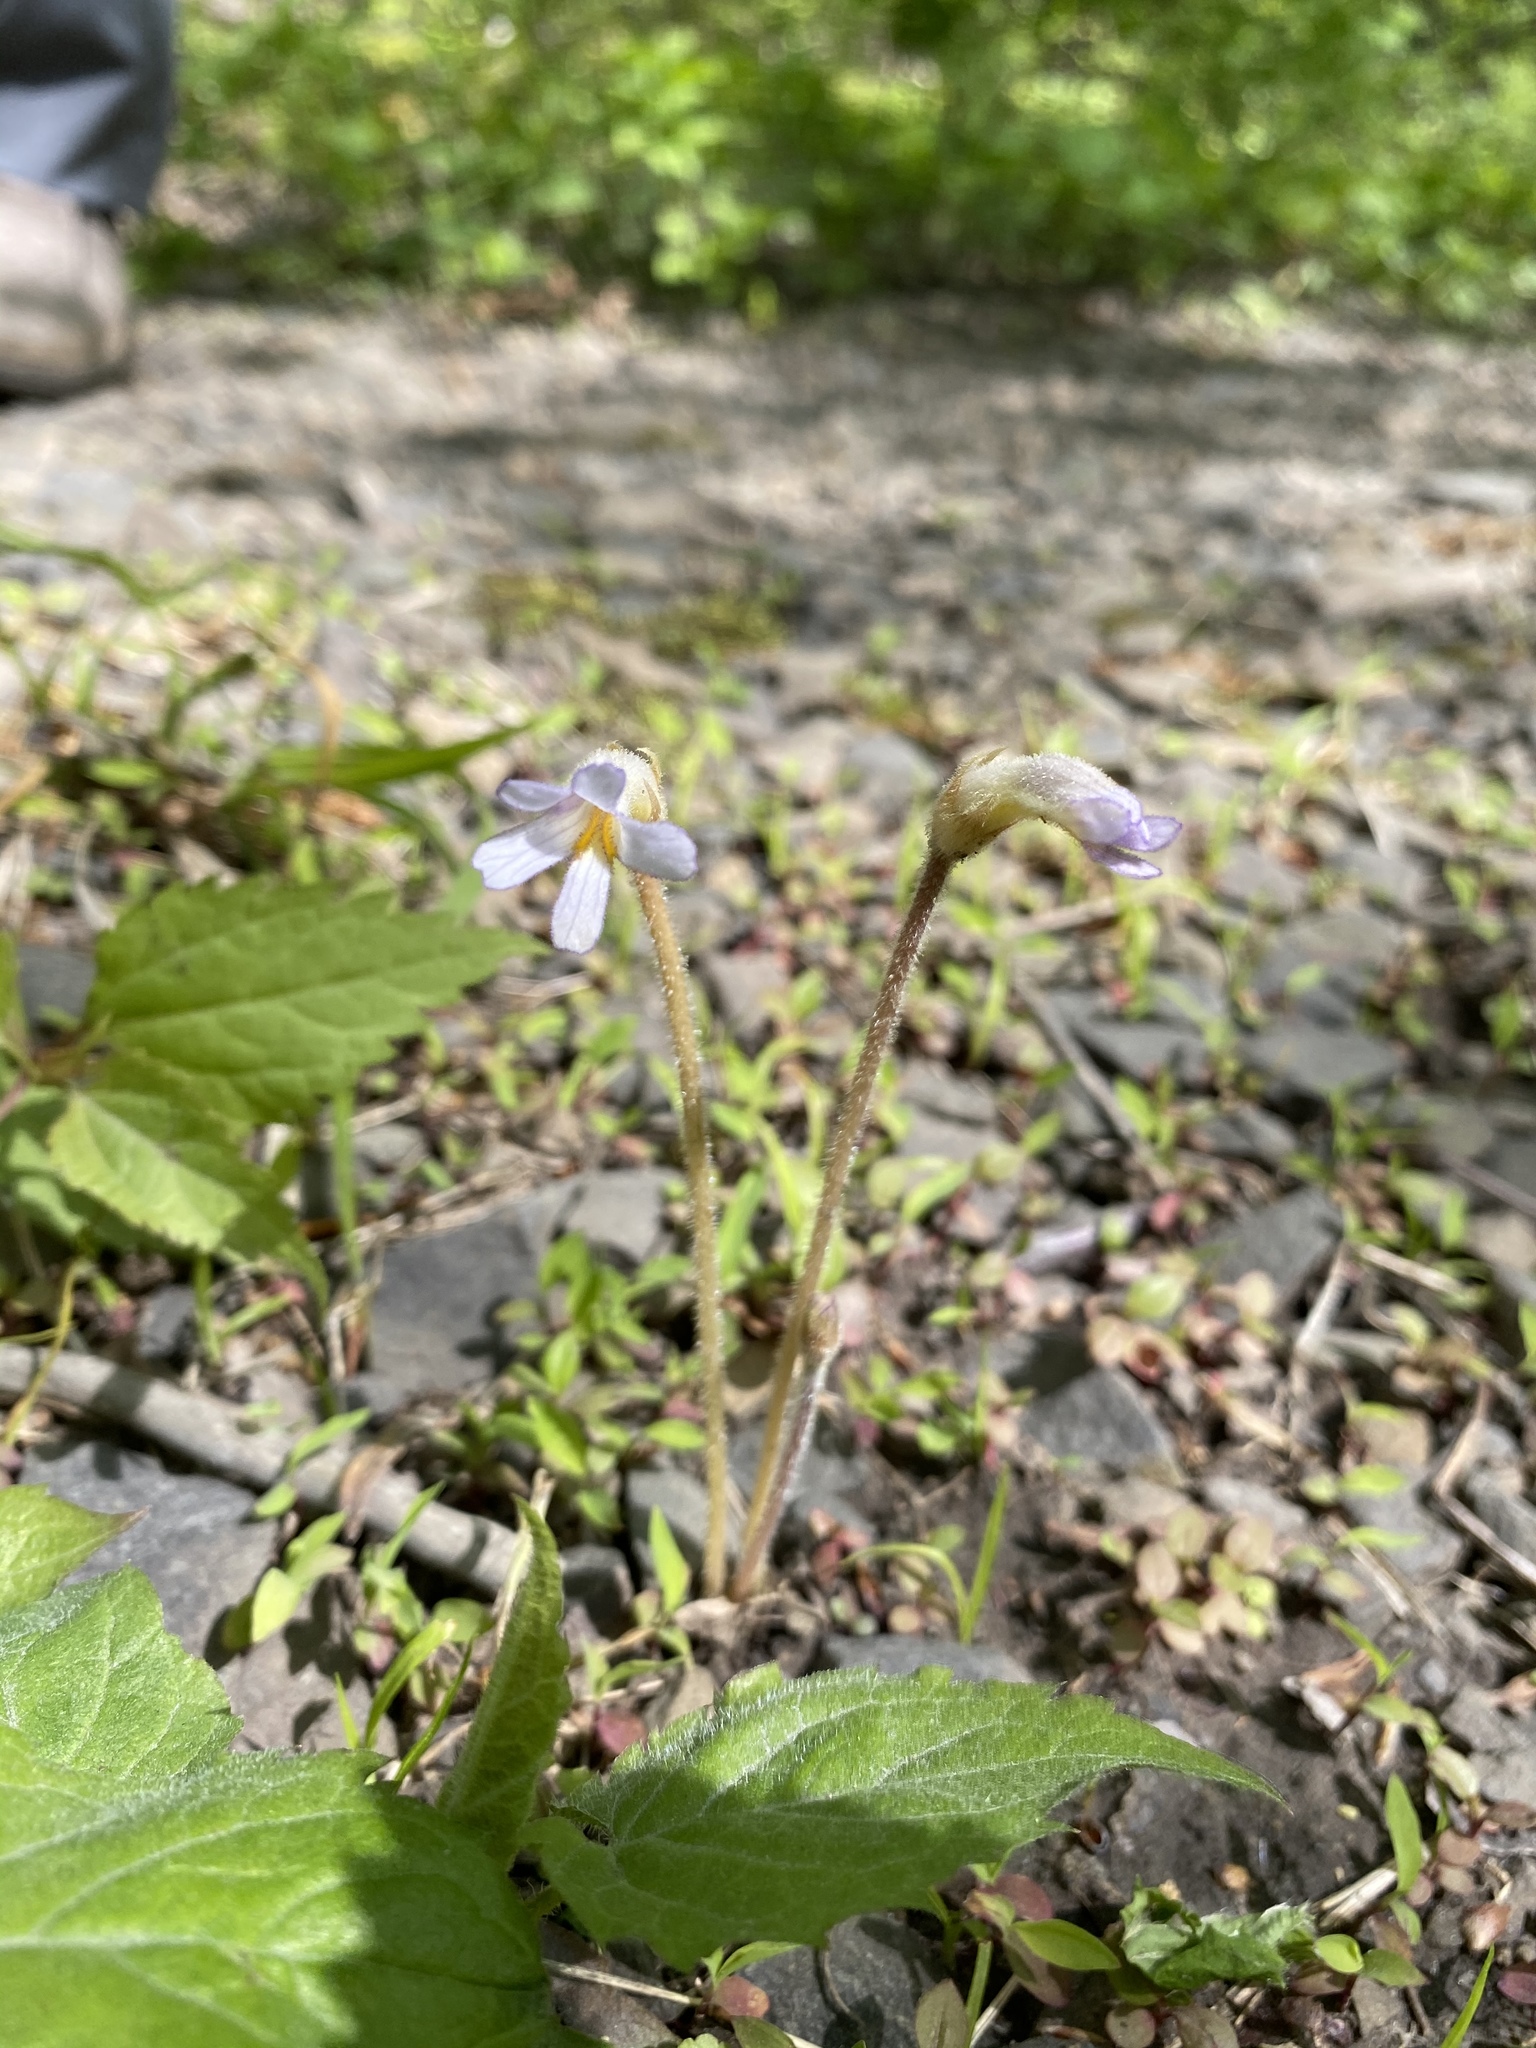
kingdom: Plantae
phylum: Tracheophyta
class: Magnoliopsida
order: Lamiales
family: Orobanchaceae
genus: Aphyllon
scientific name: Aphyllon uniflorum
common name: One-flowered broomrape
